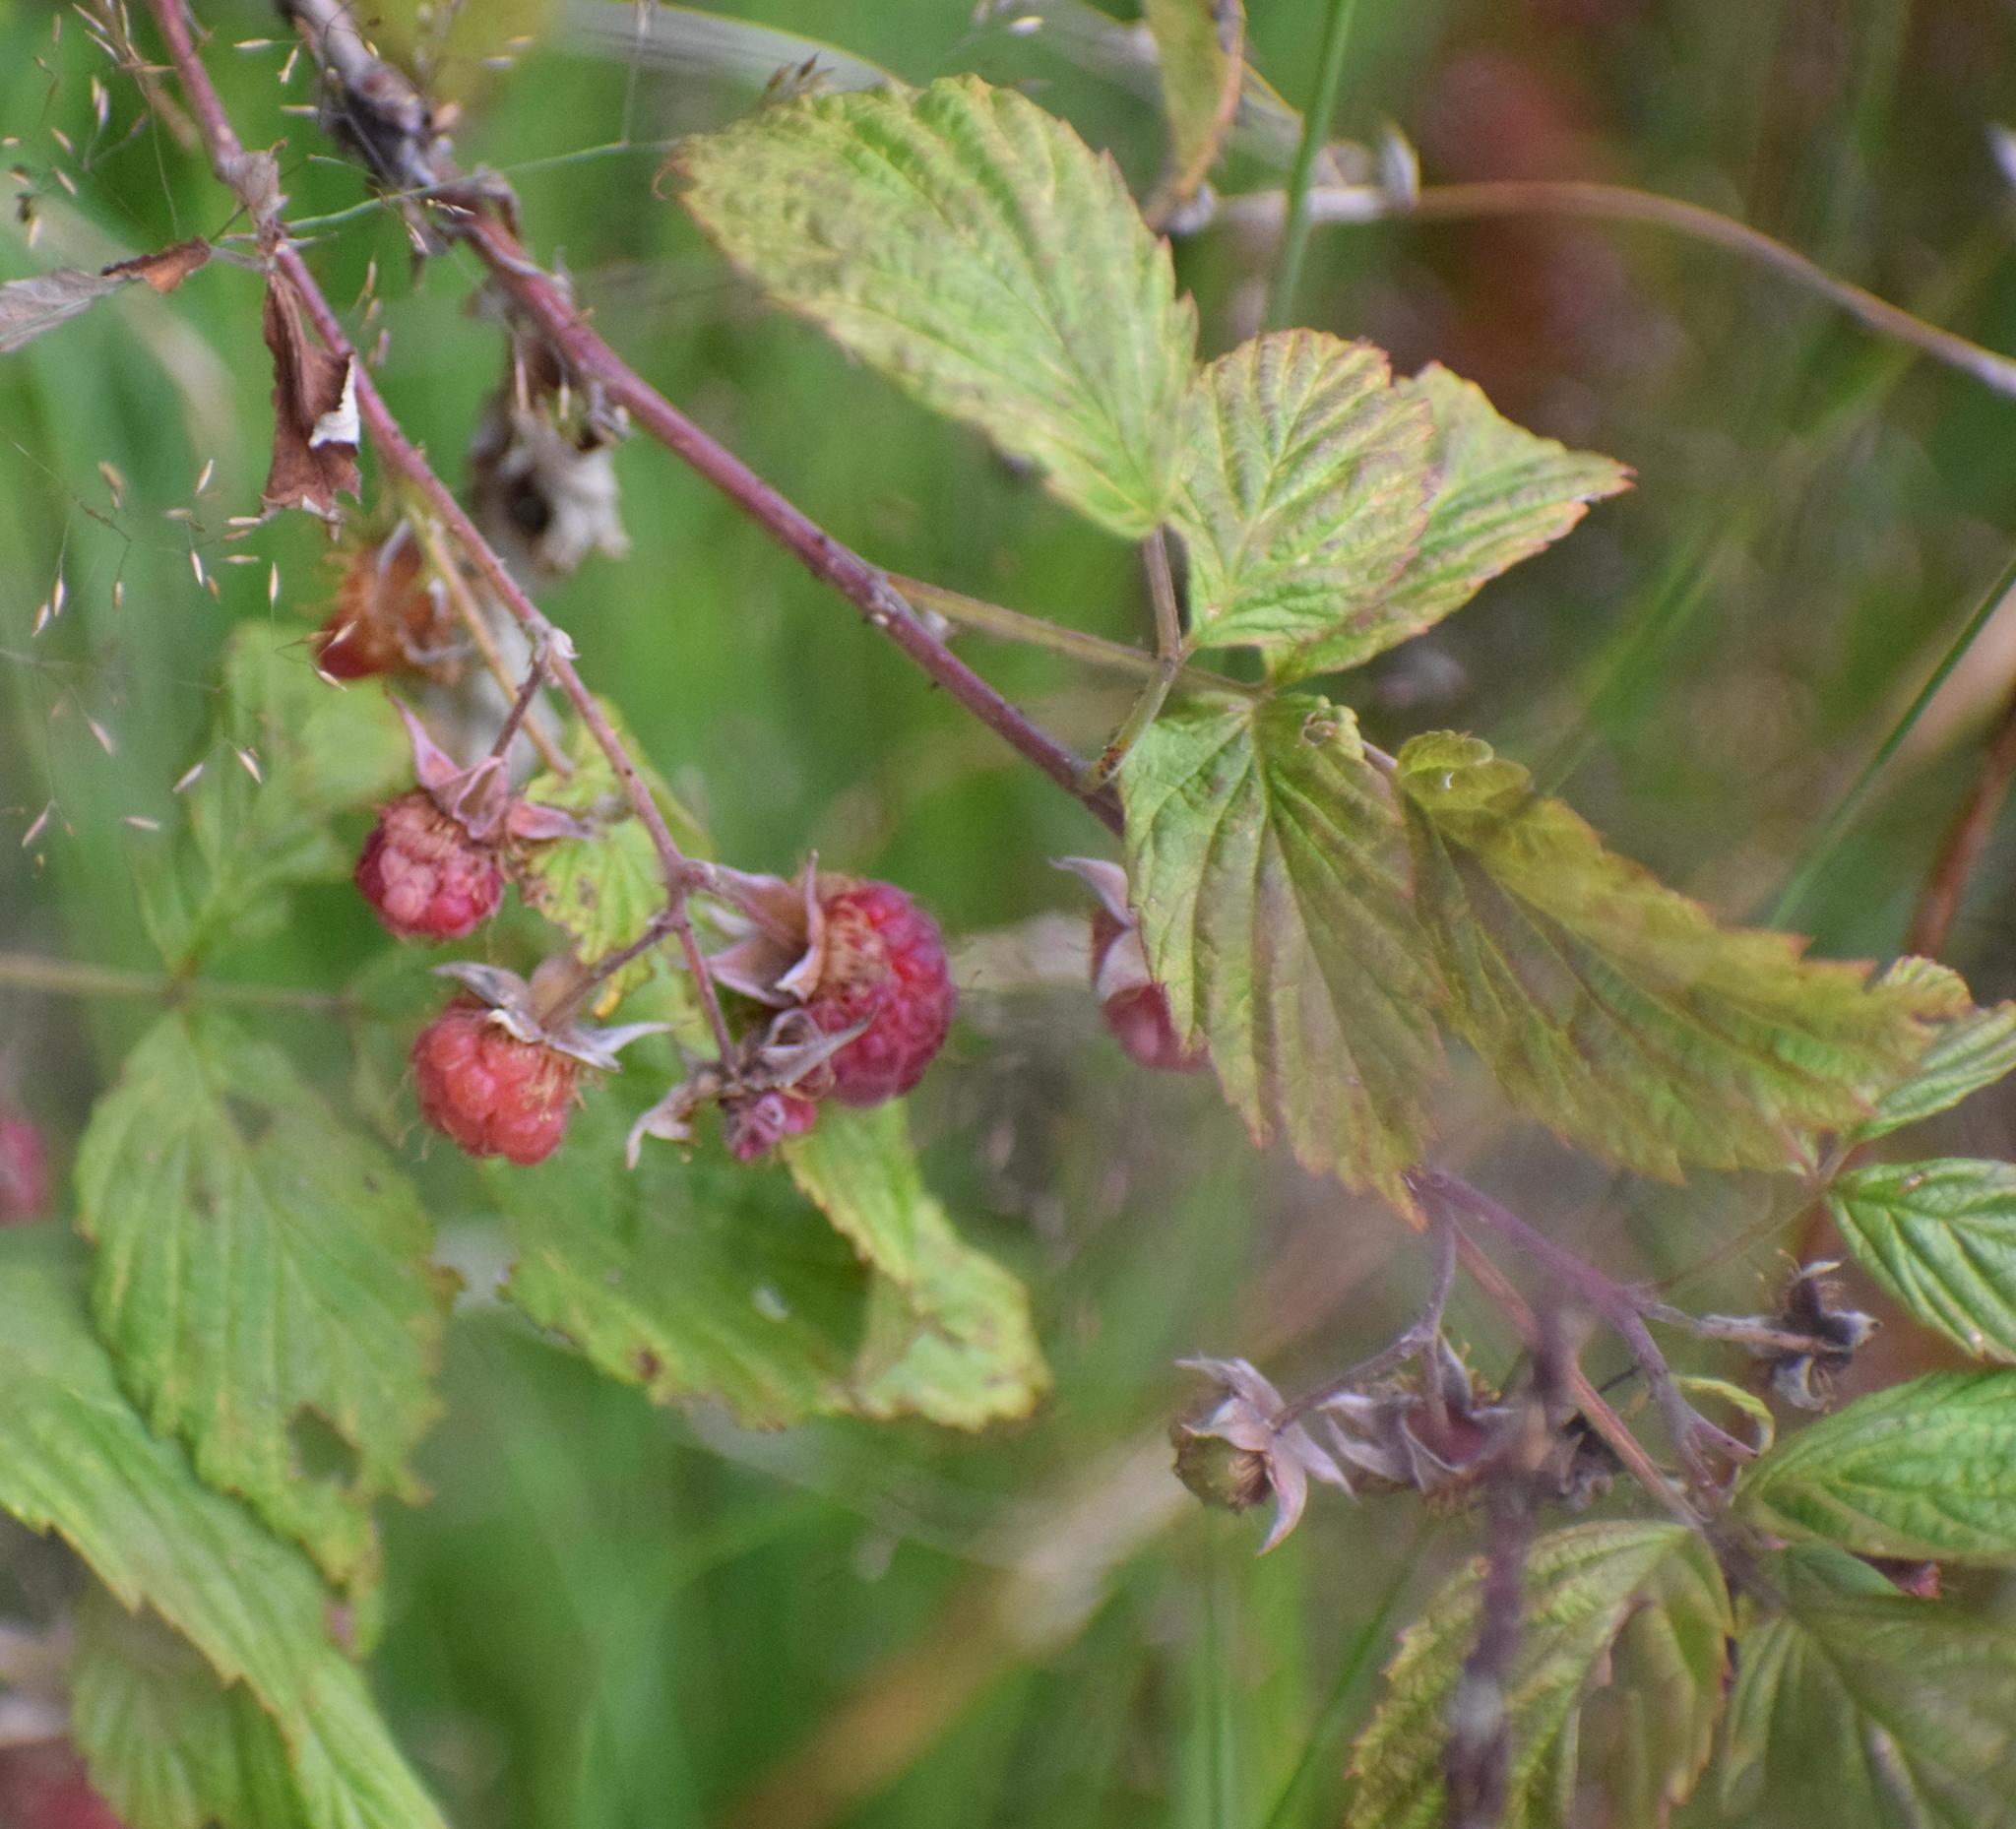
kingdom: Plantae
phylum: Tracheophyta
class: Magnoliopsida
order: Rosales
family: Rosaceae
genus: Rubus
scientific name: Rubus idaeus
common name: Raspberry
